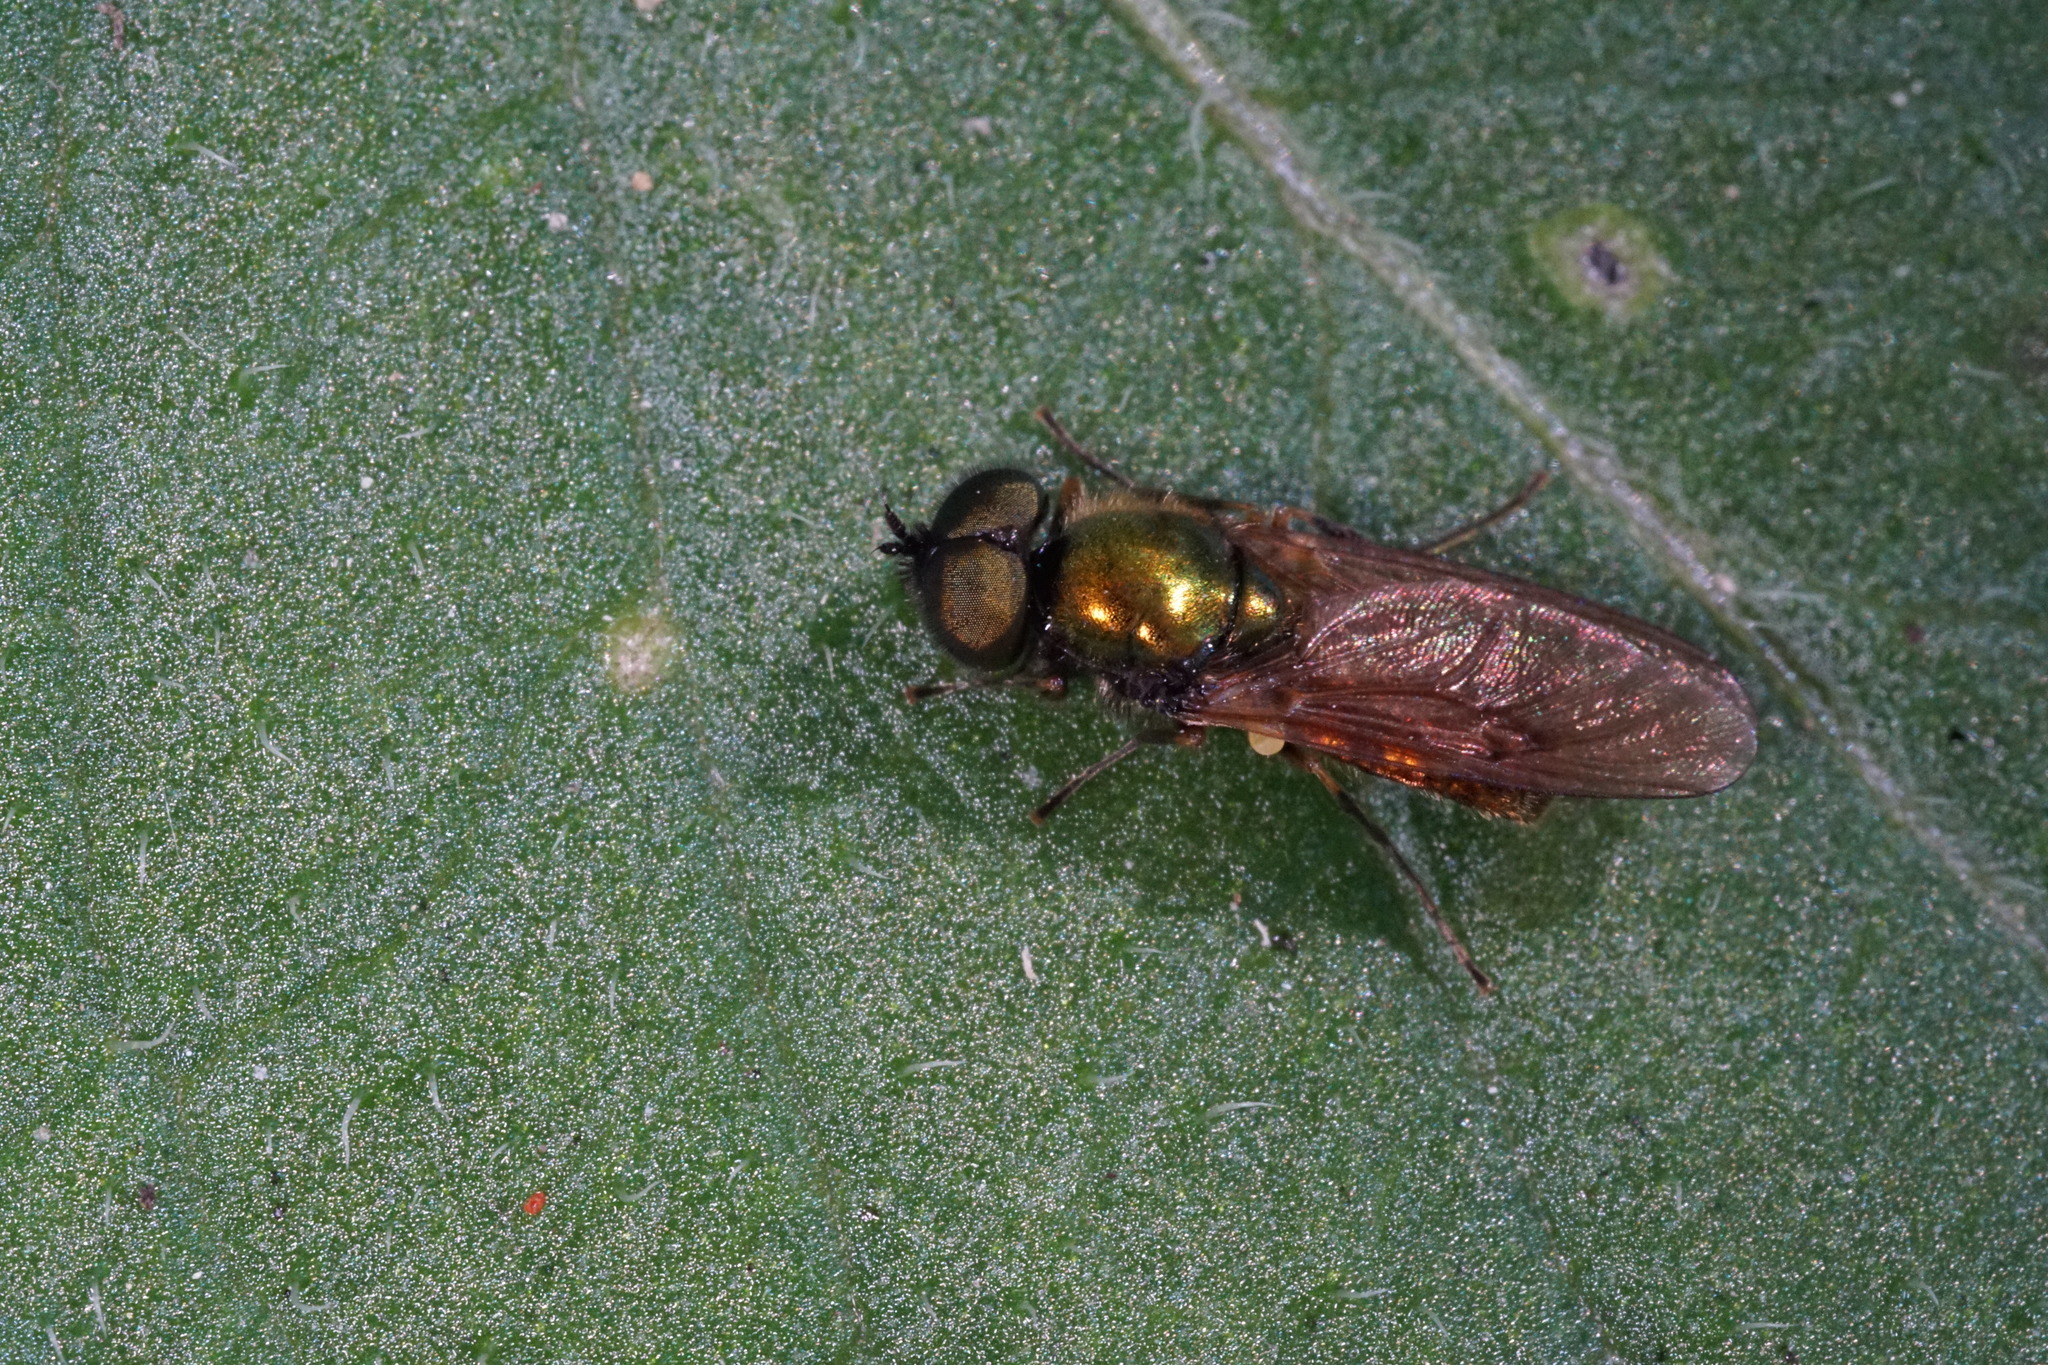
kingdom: Animalia
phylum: Arthropoda
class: Insecta
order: Diptera
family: Stratiomyidae
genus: Chloromyia
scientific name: Chloromyia formosa
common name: Soldier fly
